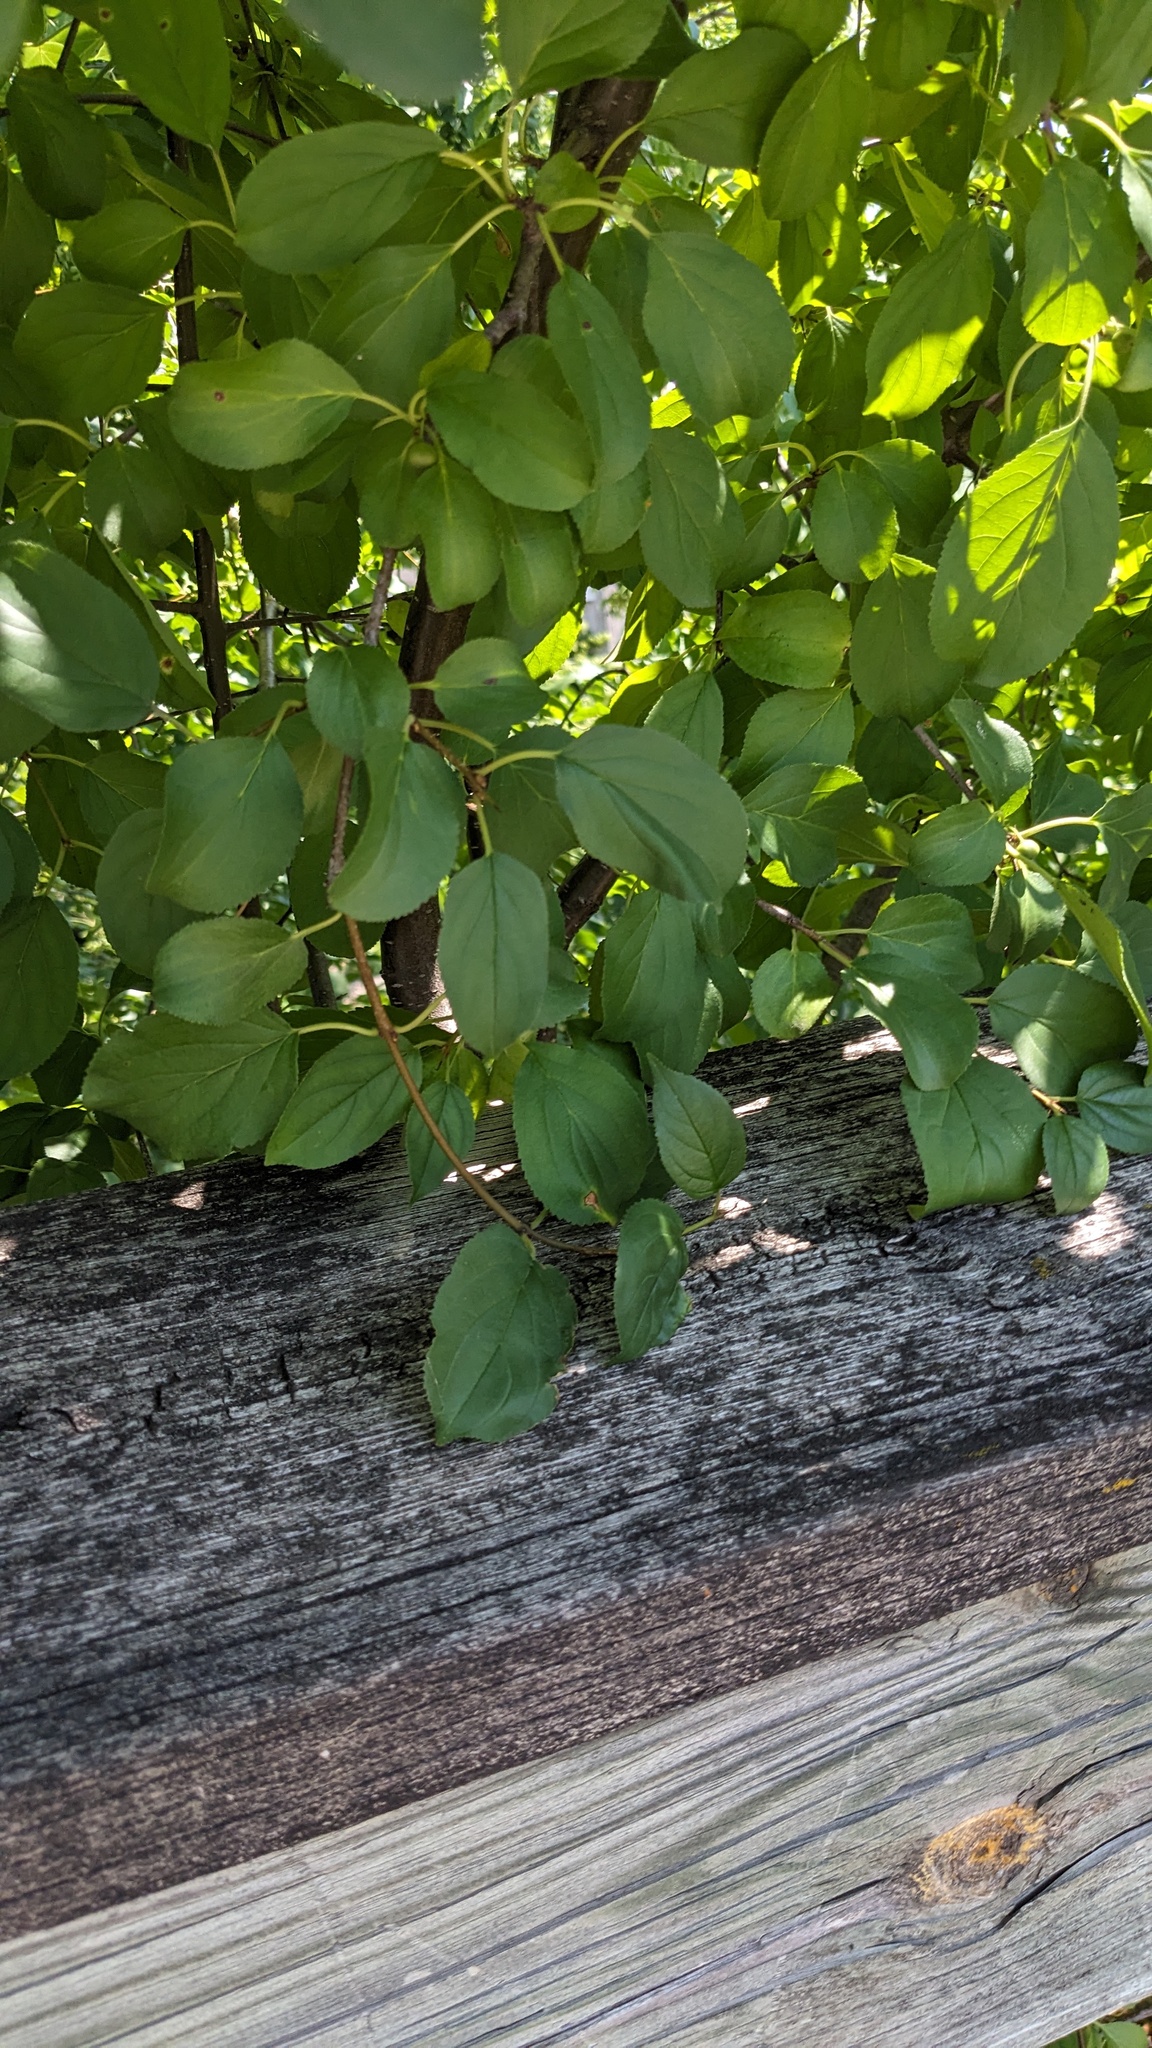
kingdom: Plantae
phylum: Tracheophyta
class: Magnoliopsida
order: Rosales
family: Rhamnaceae
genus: Rhamnus
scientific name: Rhamnus cathartica
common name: Common buckthorn
